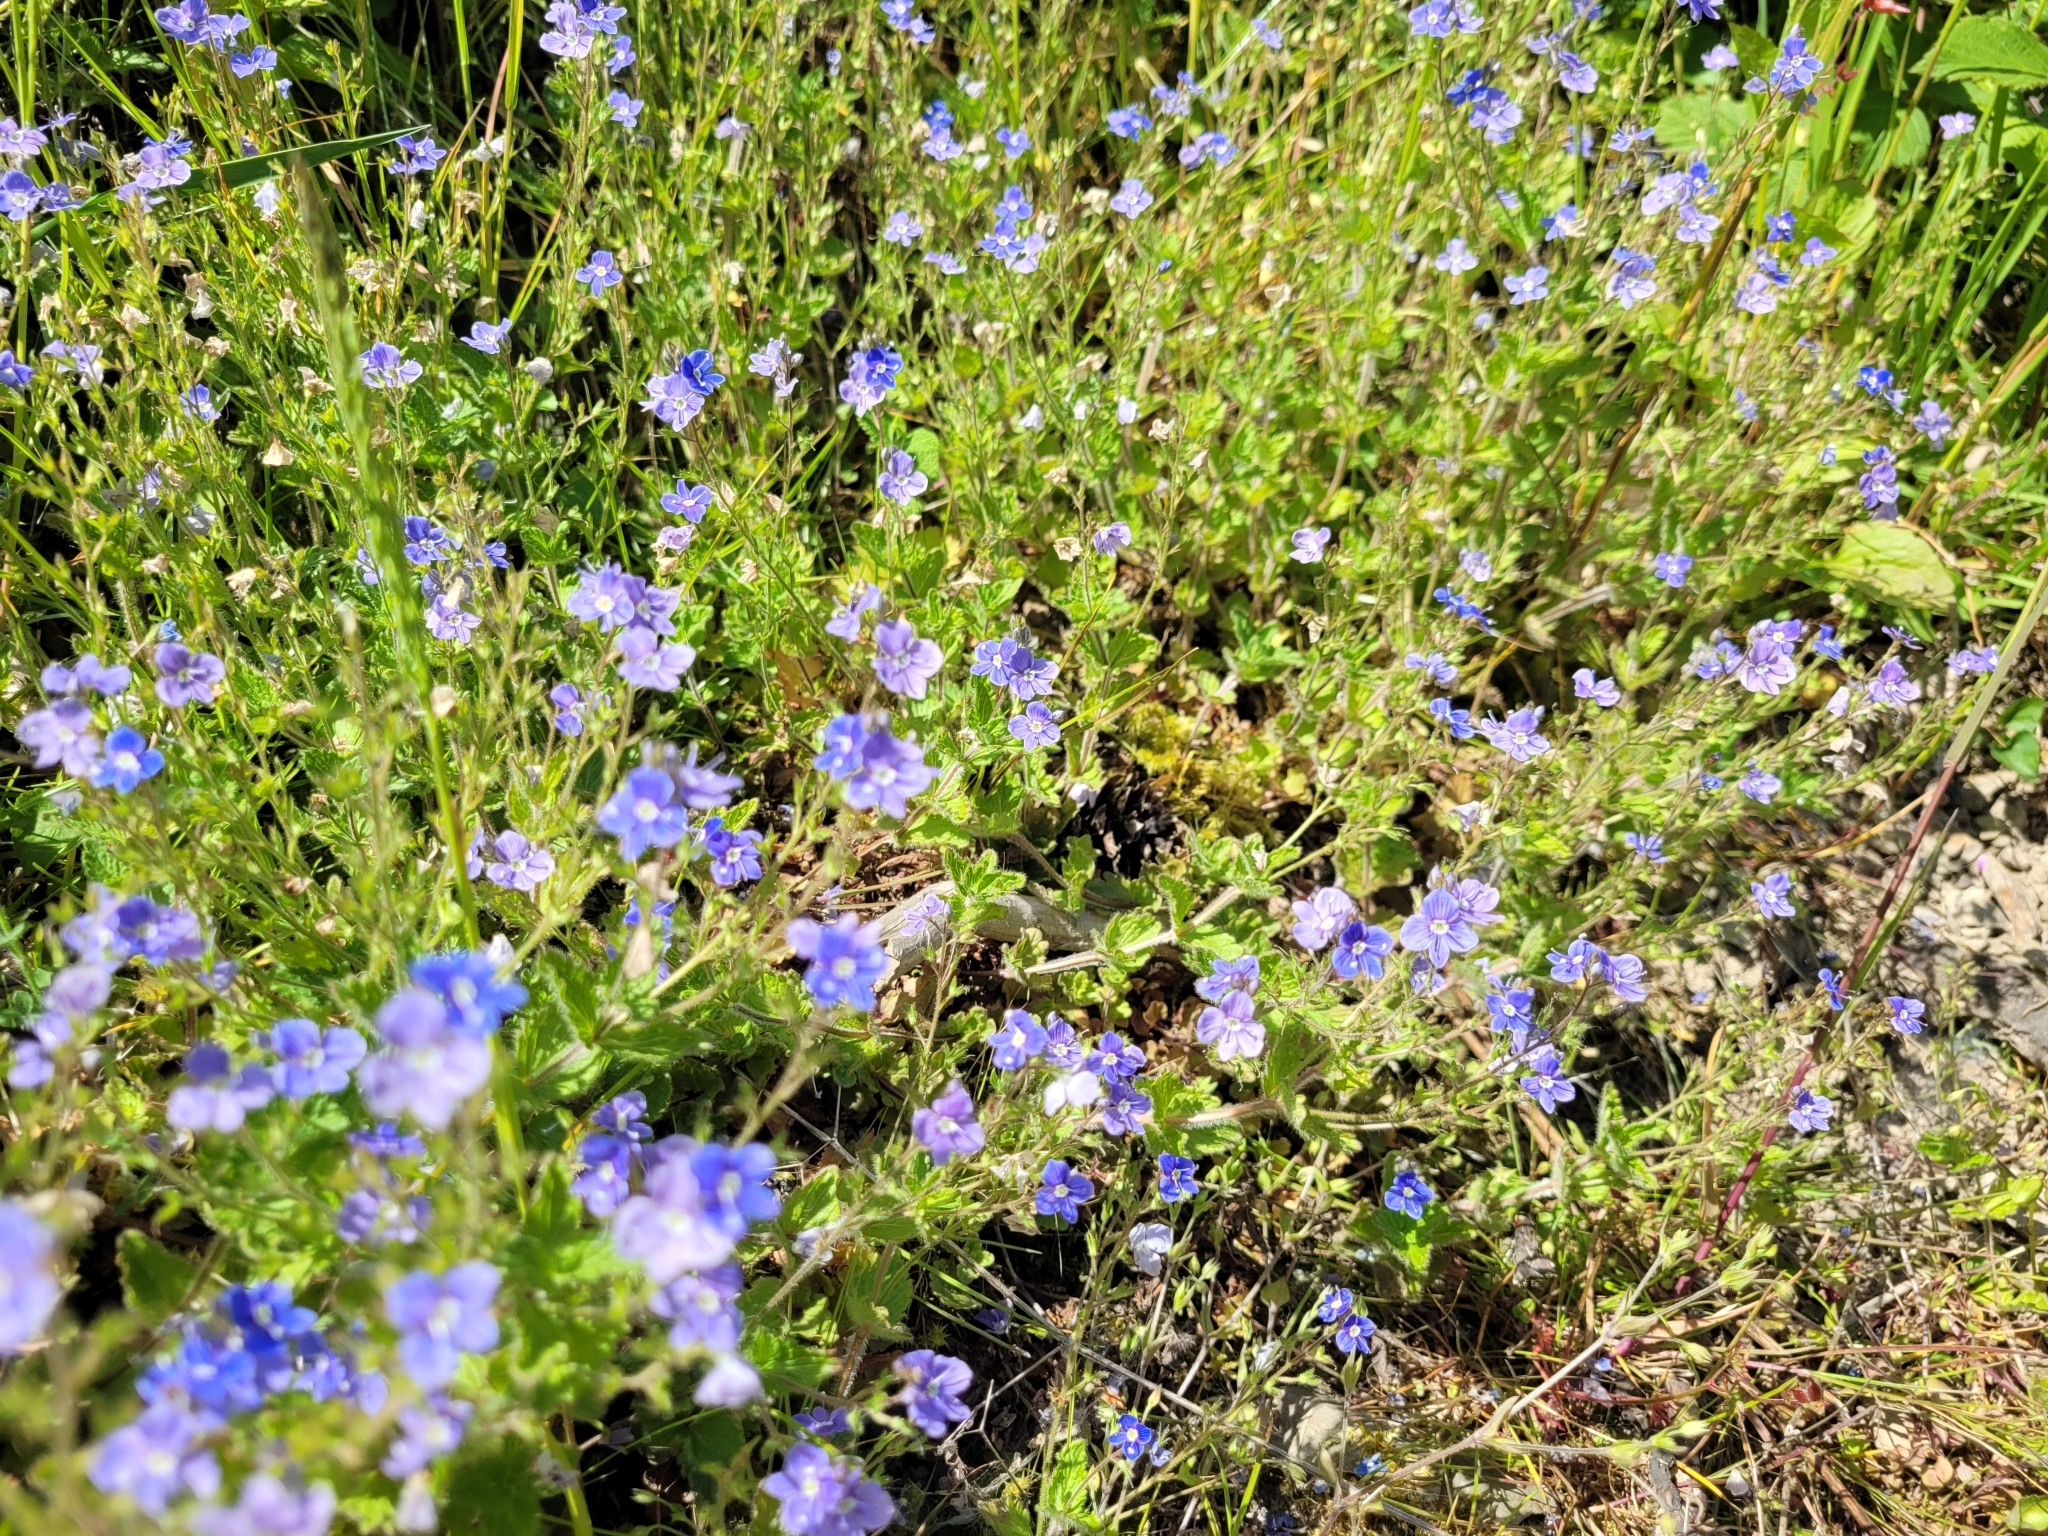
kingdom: Plantae
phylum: Tracheophyta
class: Magnoliopsida
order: Lamiales
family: Plantaginaceae
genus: Veronica
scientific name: Veronica chamaedrys
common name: Germander speedwell
